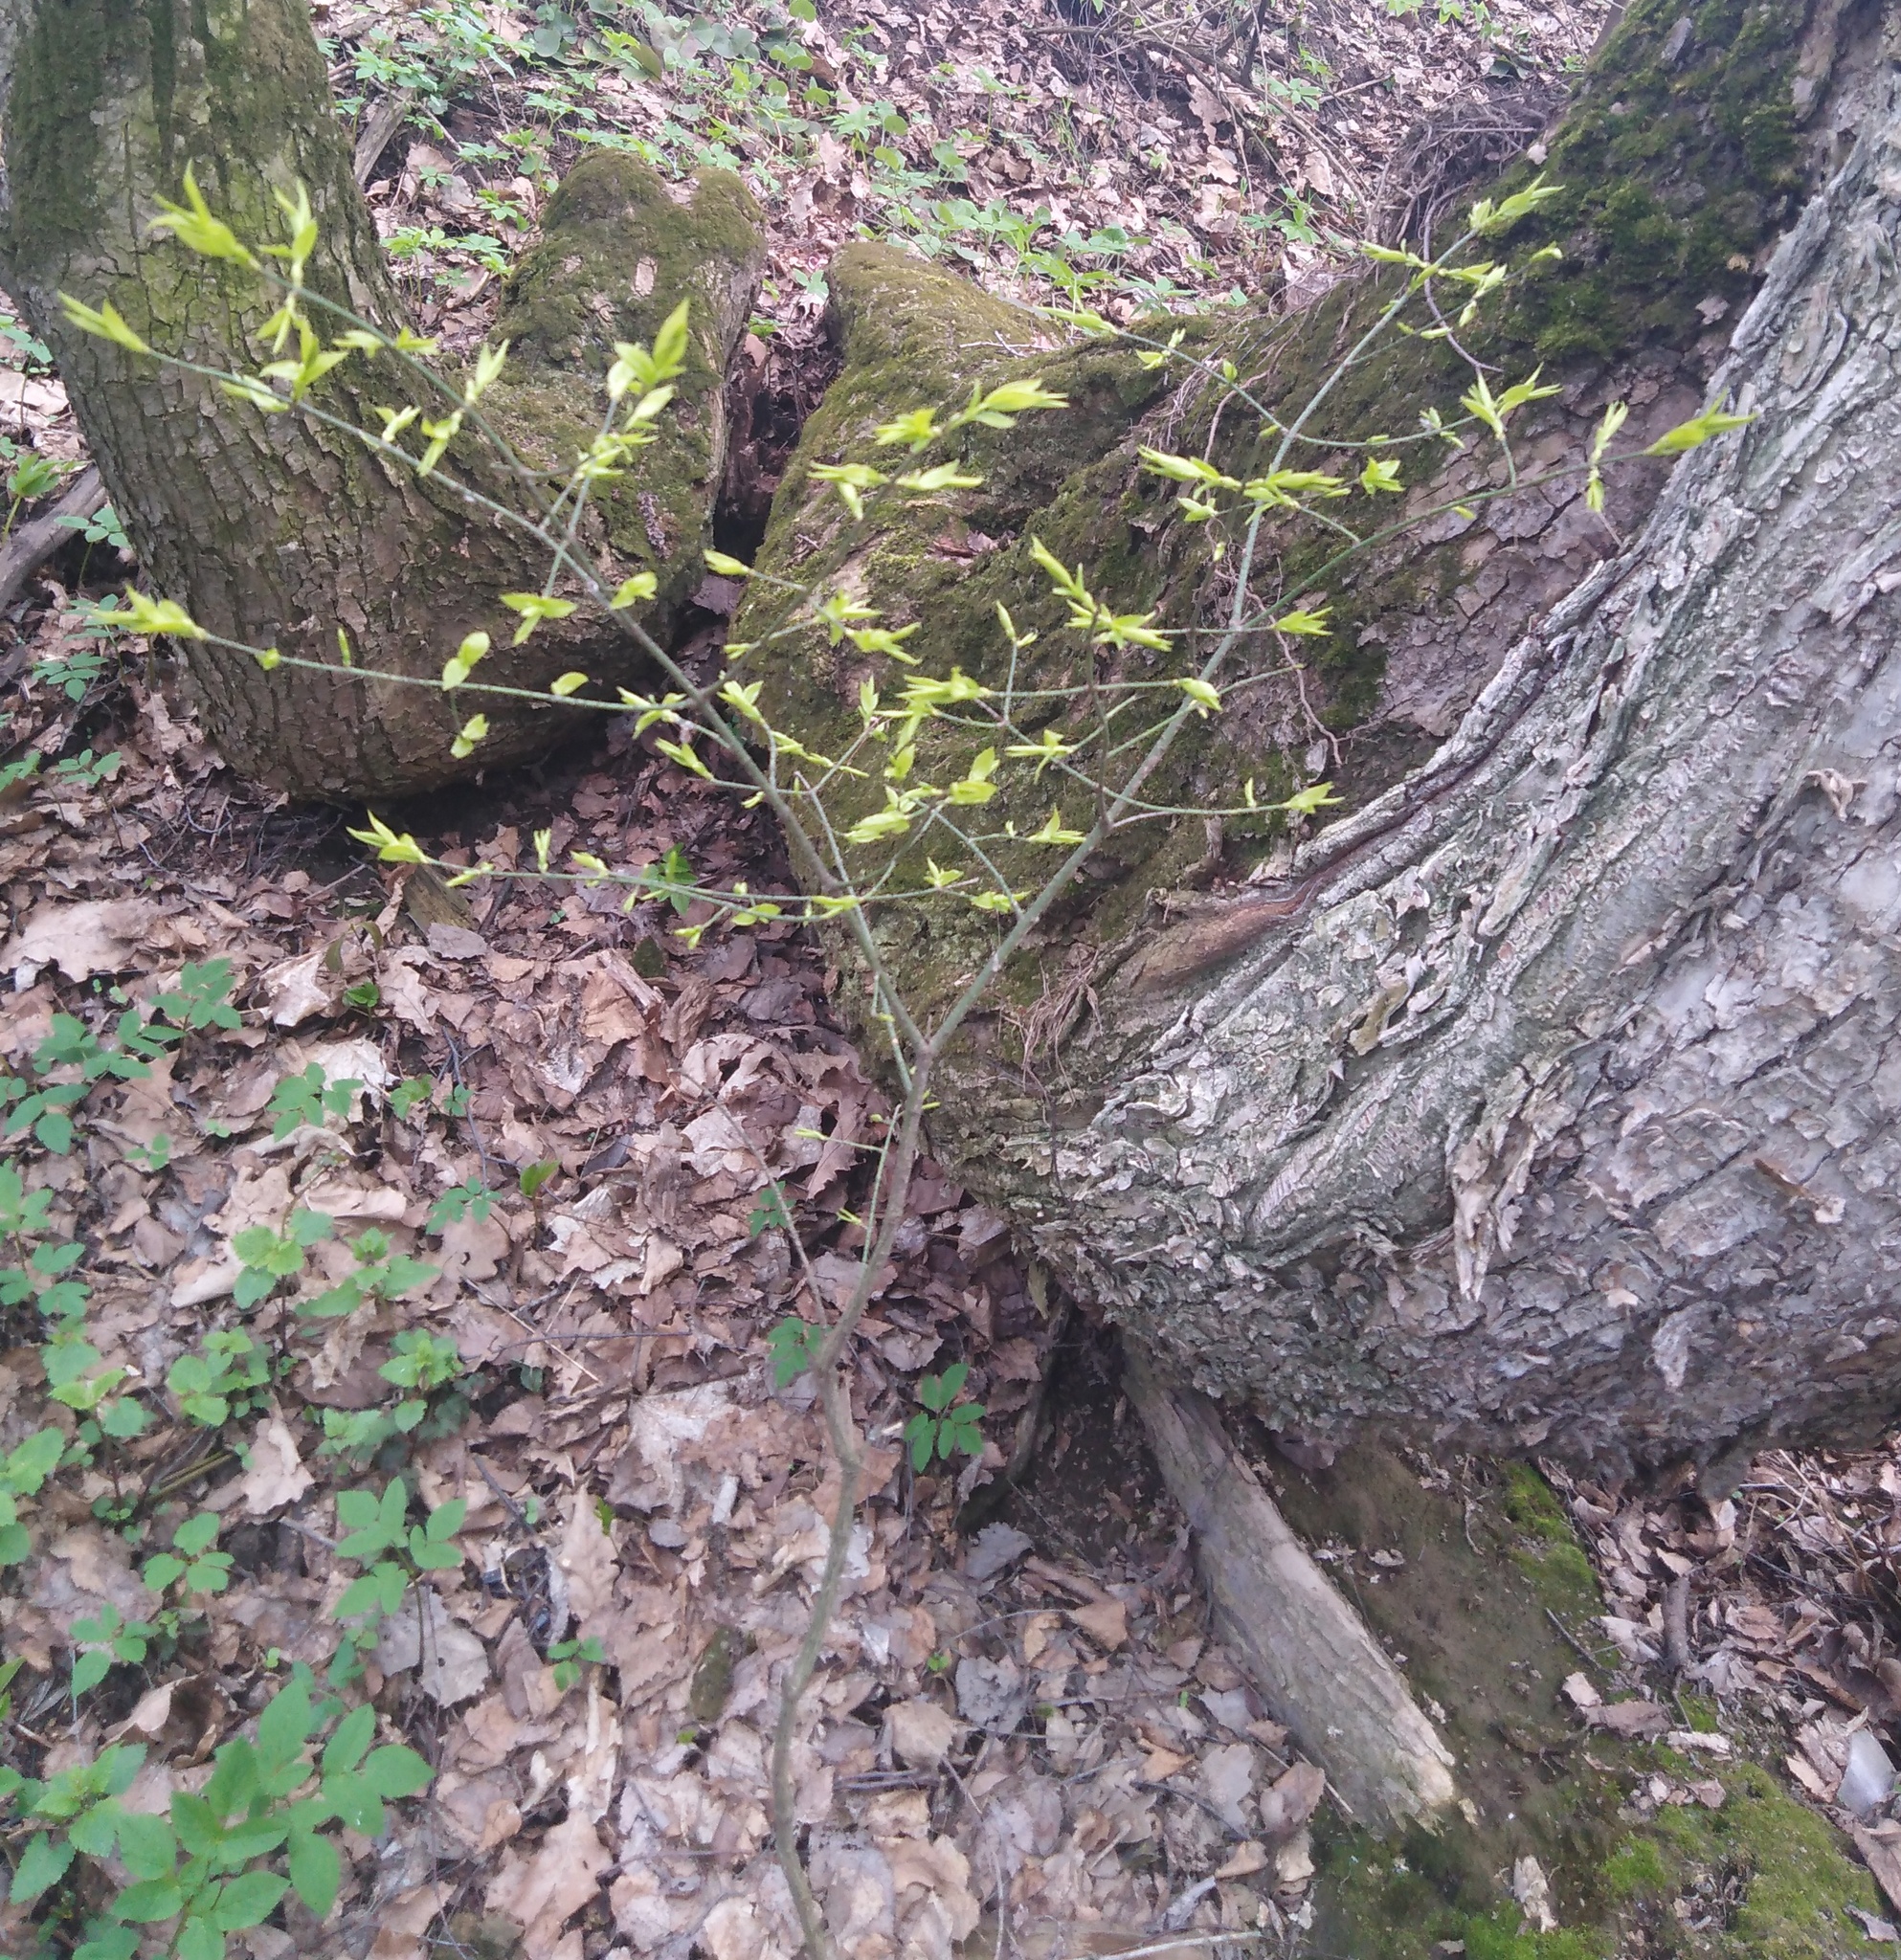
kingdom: Plantae
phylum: Tracheophyta
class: Magnoliopsida
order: Celastrales
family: Celastraceae
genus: Euonymus
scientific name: Euonymus verrucosus
